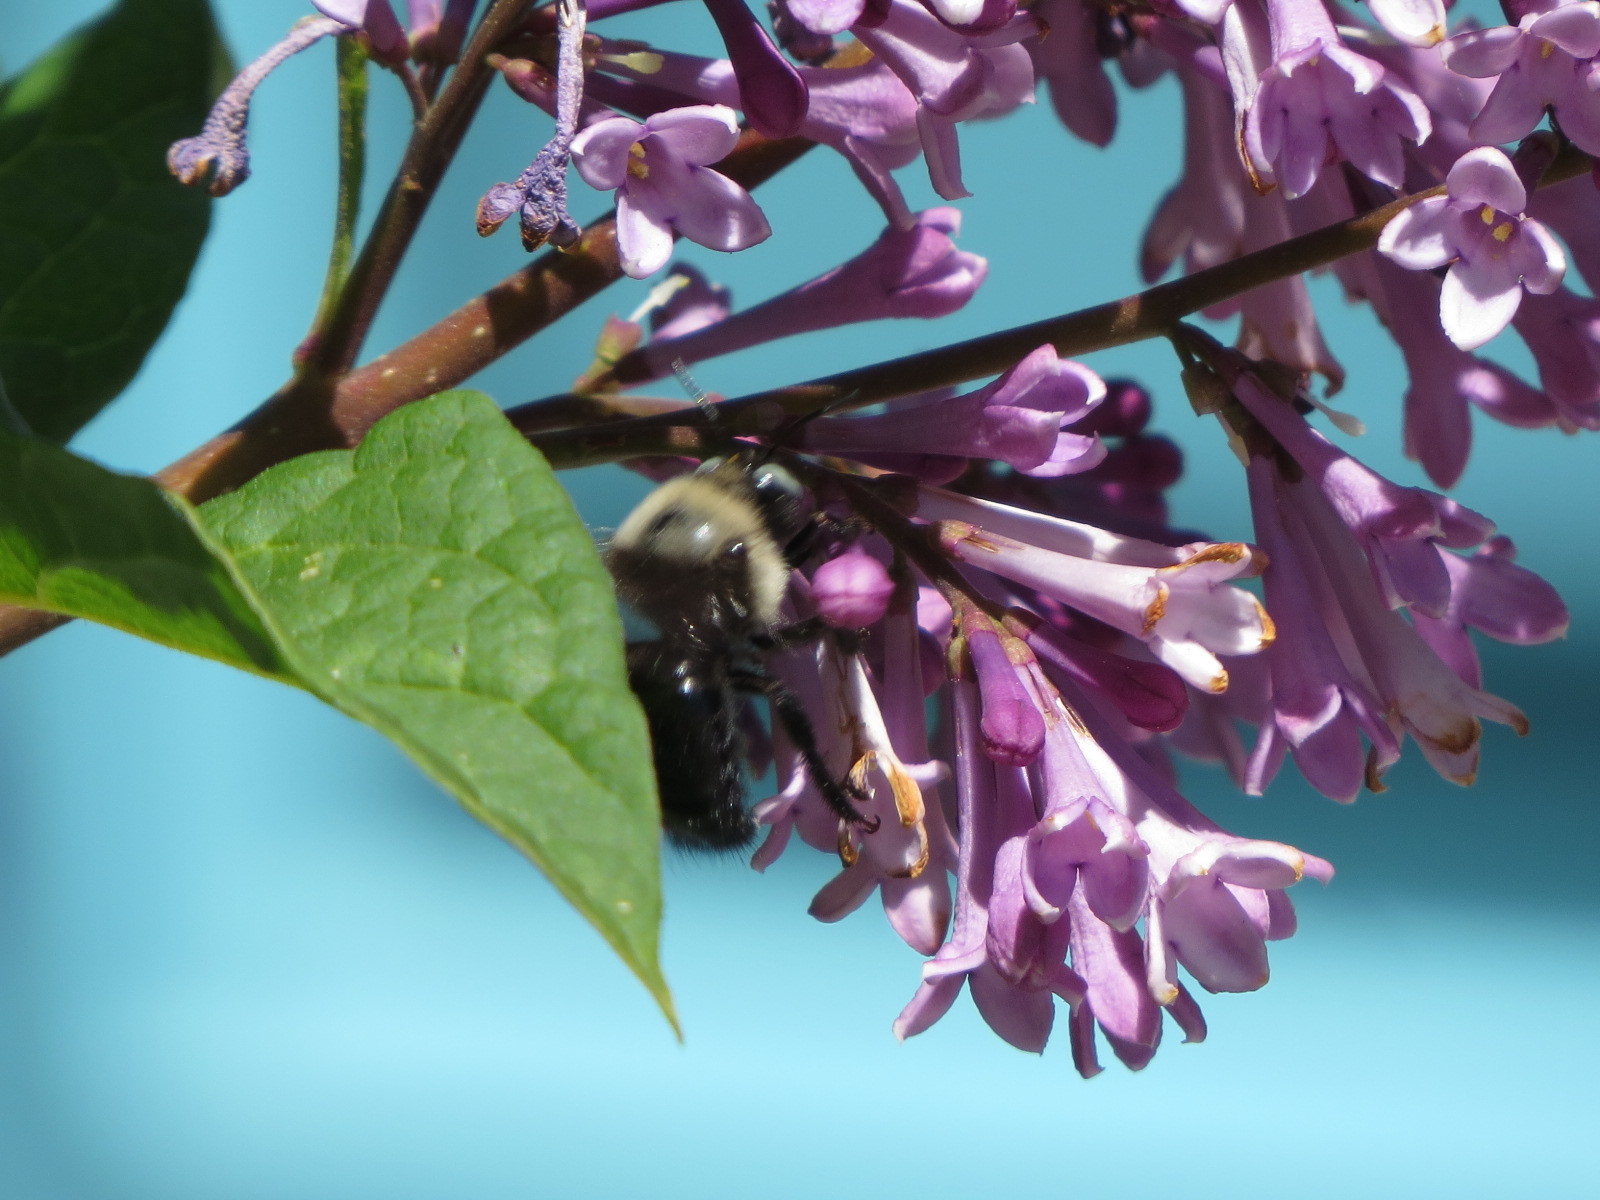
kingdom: Animalia
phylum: Arthropoda
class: Insecta
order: Hymenoptera
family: Apidae
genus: Xylocopa
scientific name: Xylocopa tabaniformis
